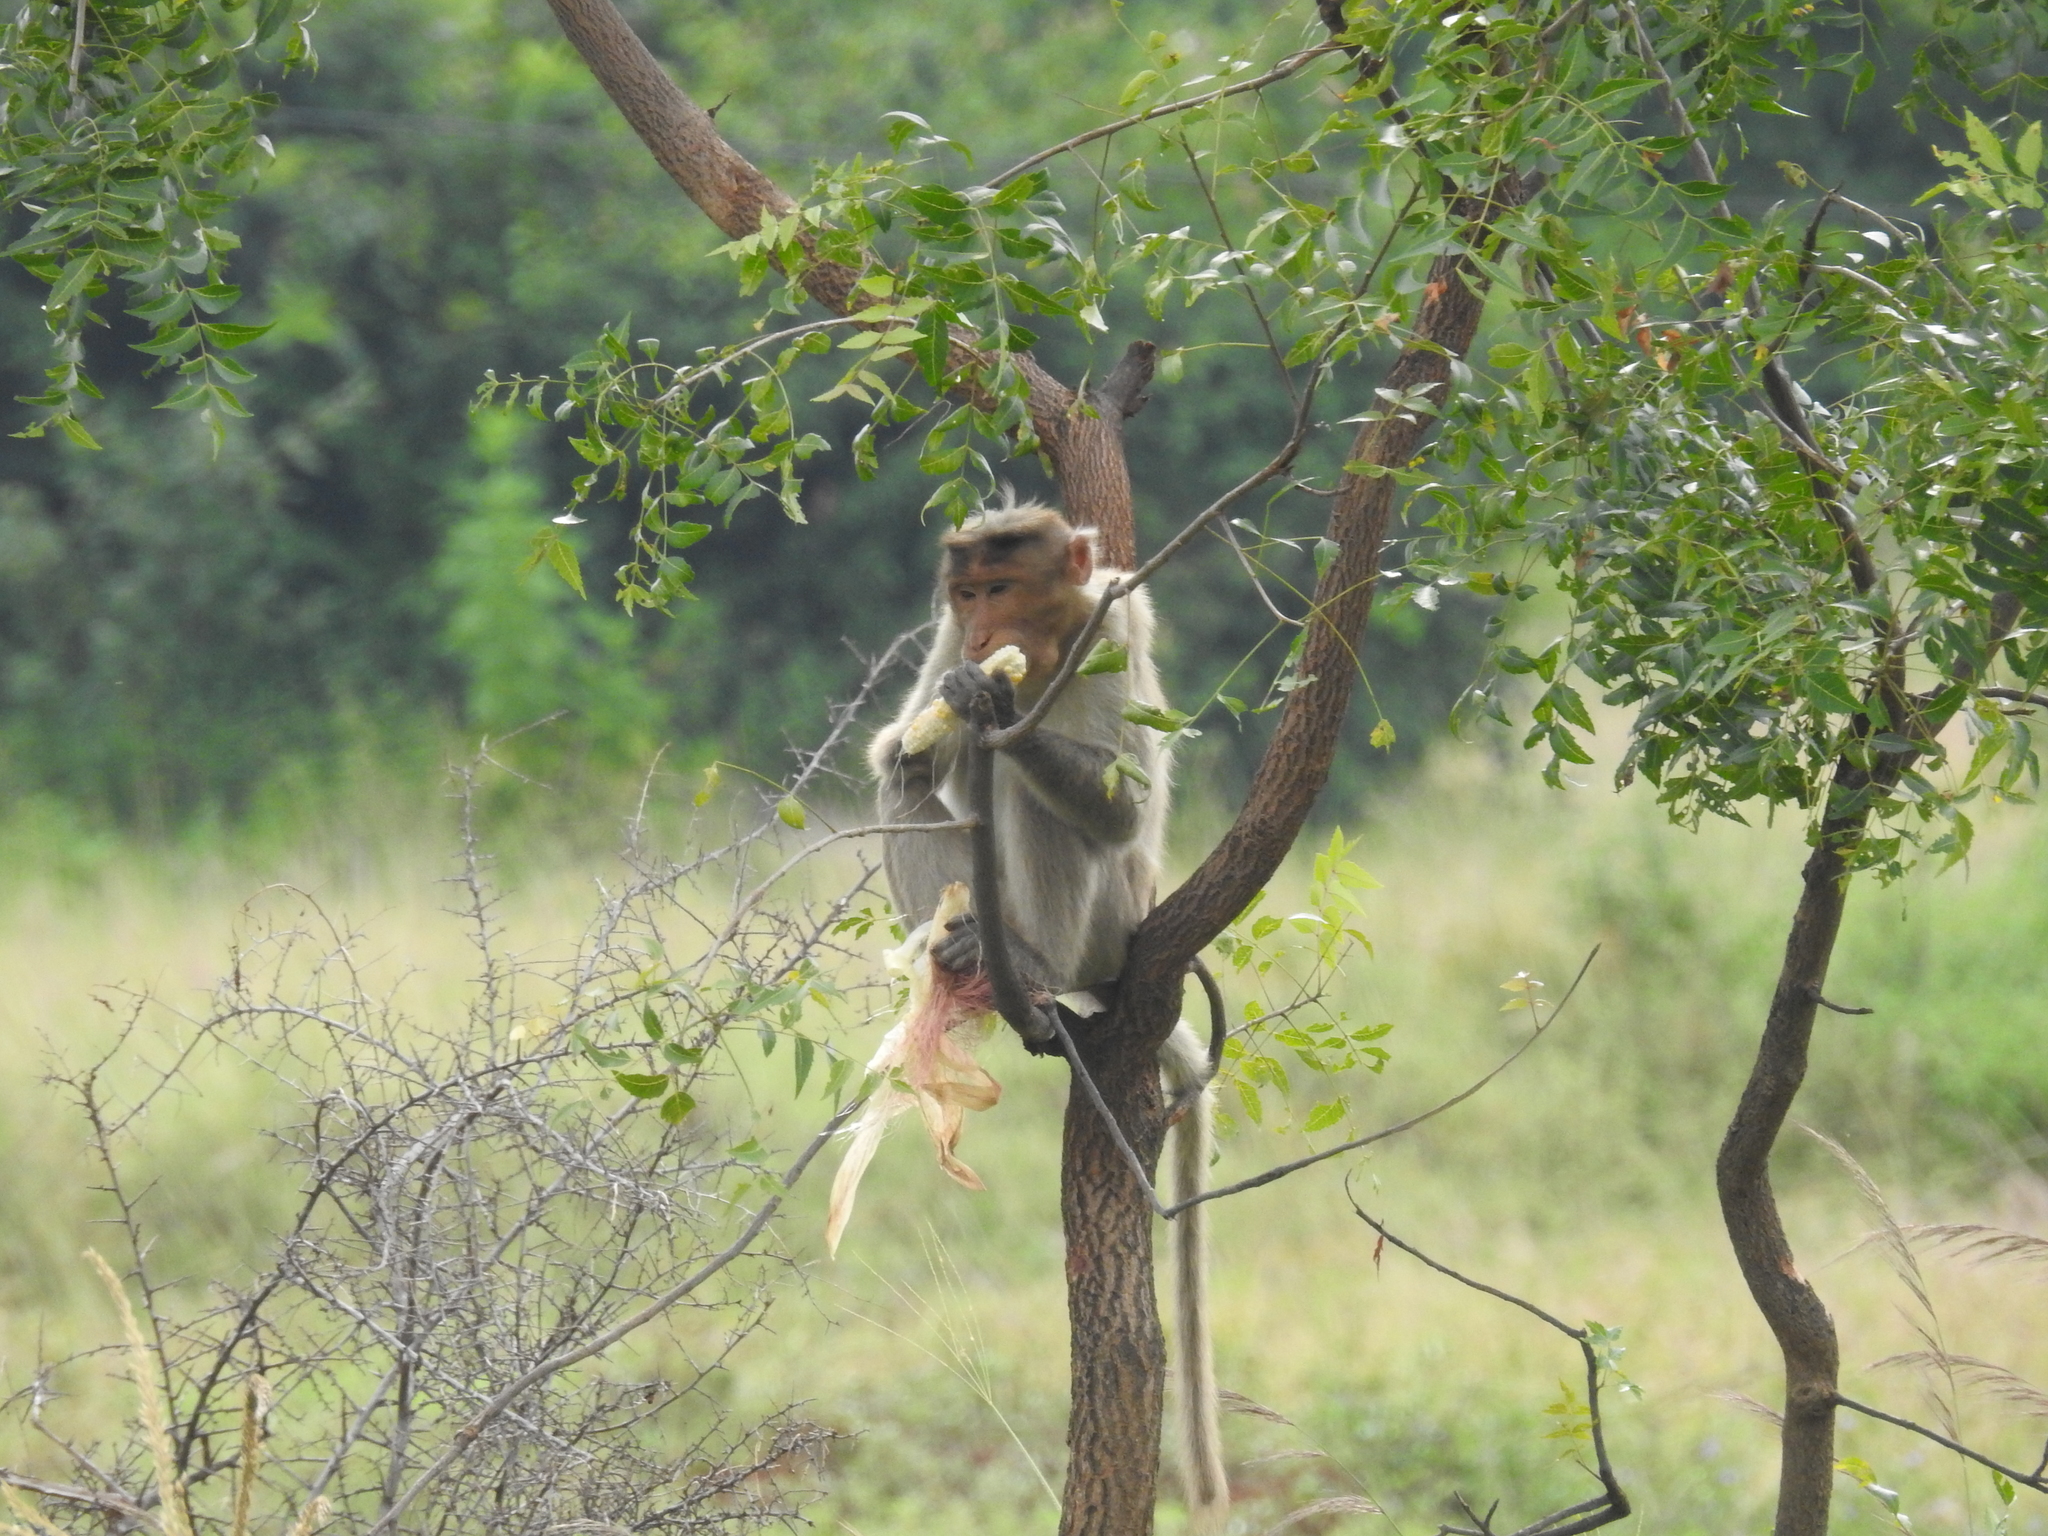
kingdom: Animalia
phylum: Chordata
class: Mammalia
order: Primates
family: Cercopithecidae
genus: Macaca
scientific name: Macaca radiata
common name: Bonnet macaque
